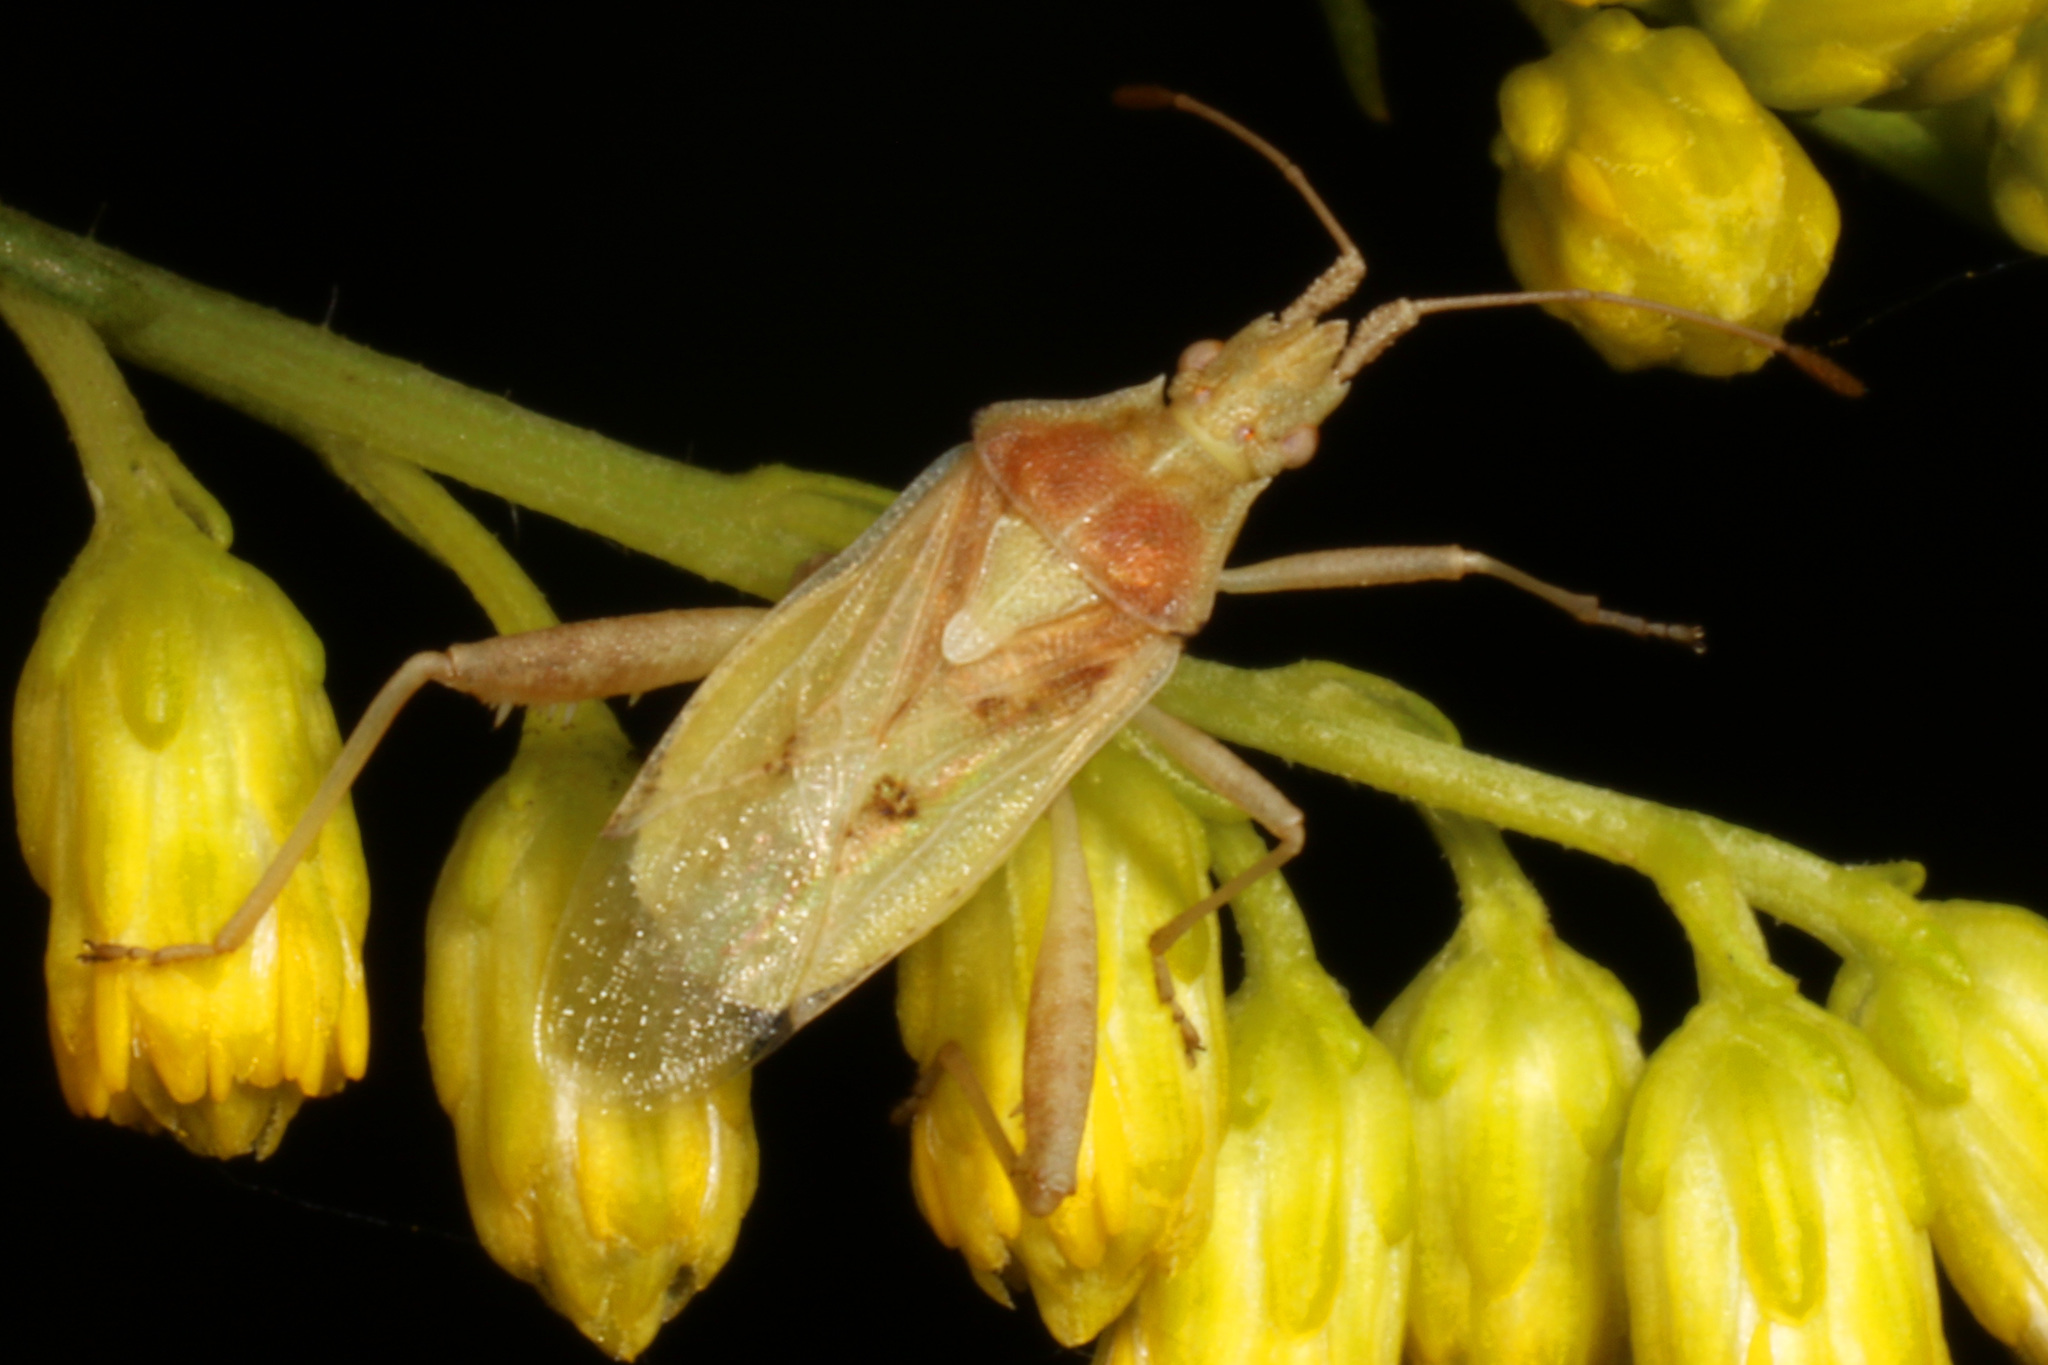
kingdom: Animalia
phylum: Arthropoda
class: Insecta
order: Hemiptera
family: Rhopalidae
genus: Harmostes
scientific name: Harmostes reflexulus
